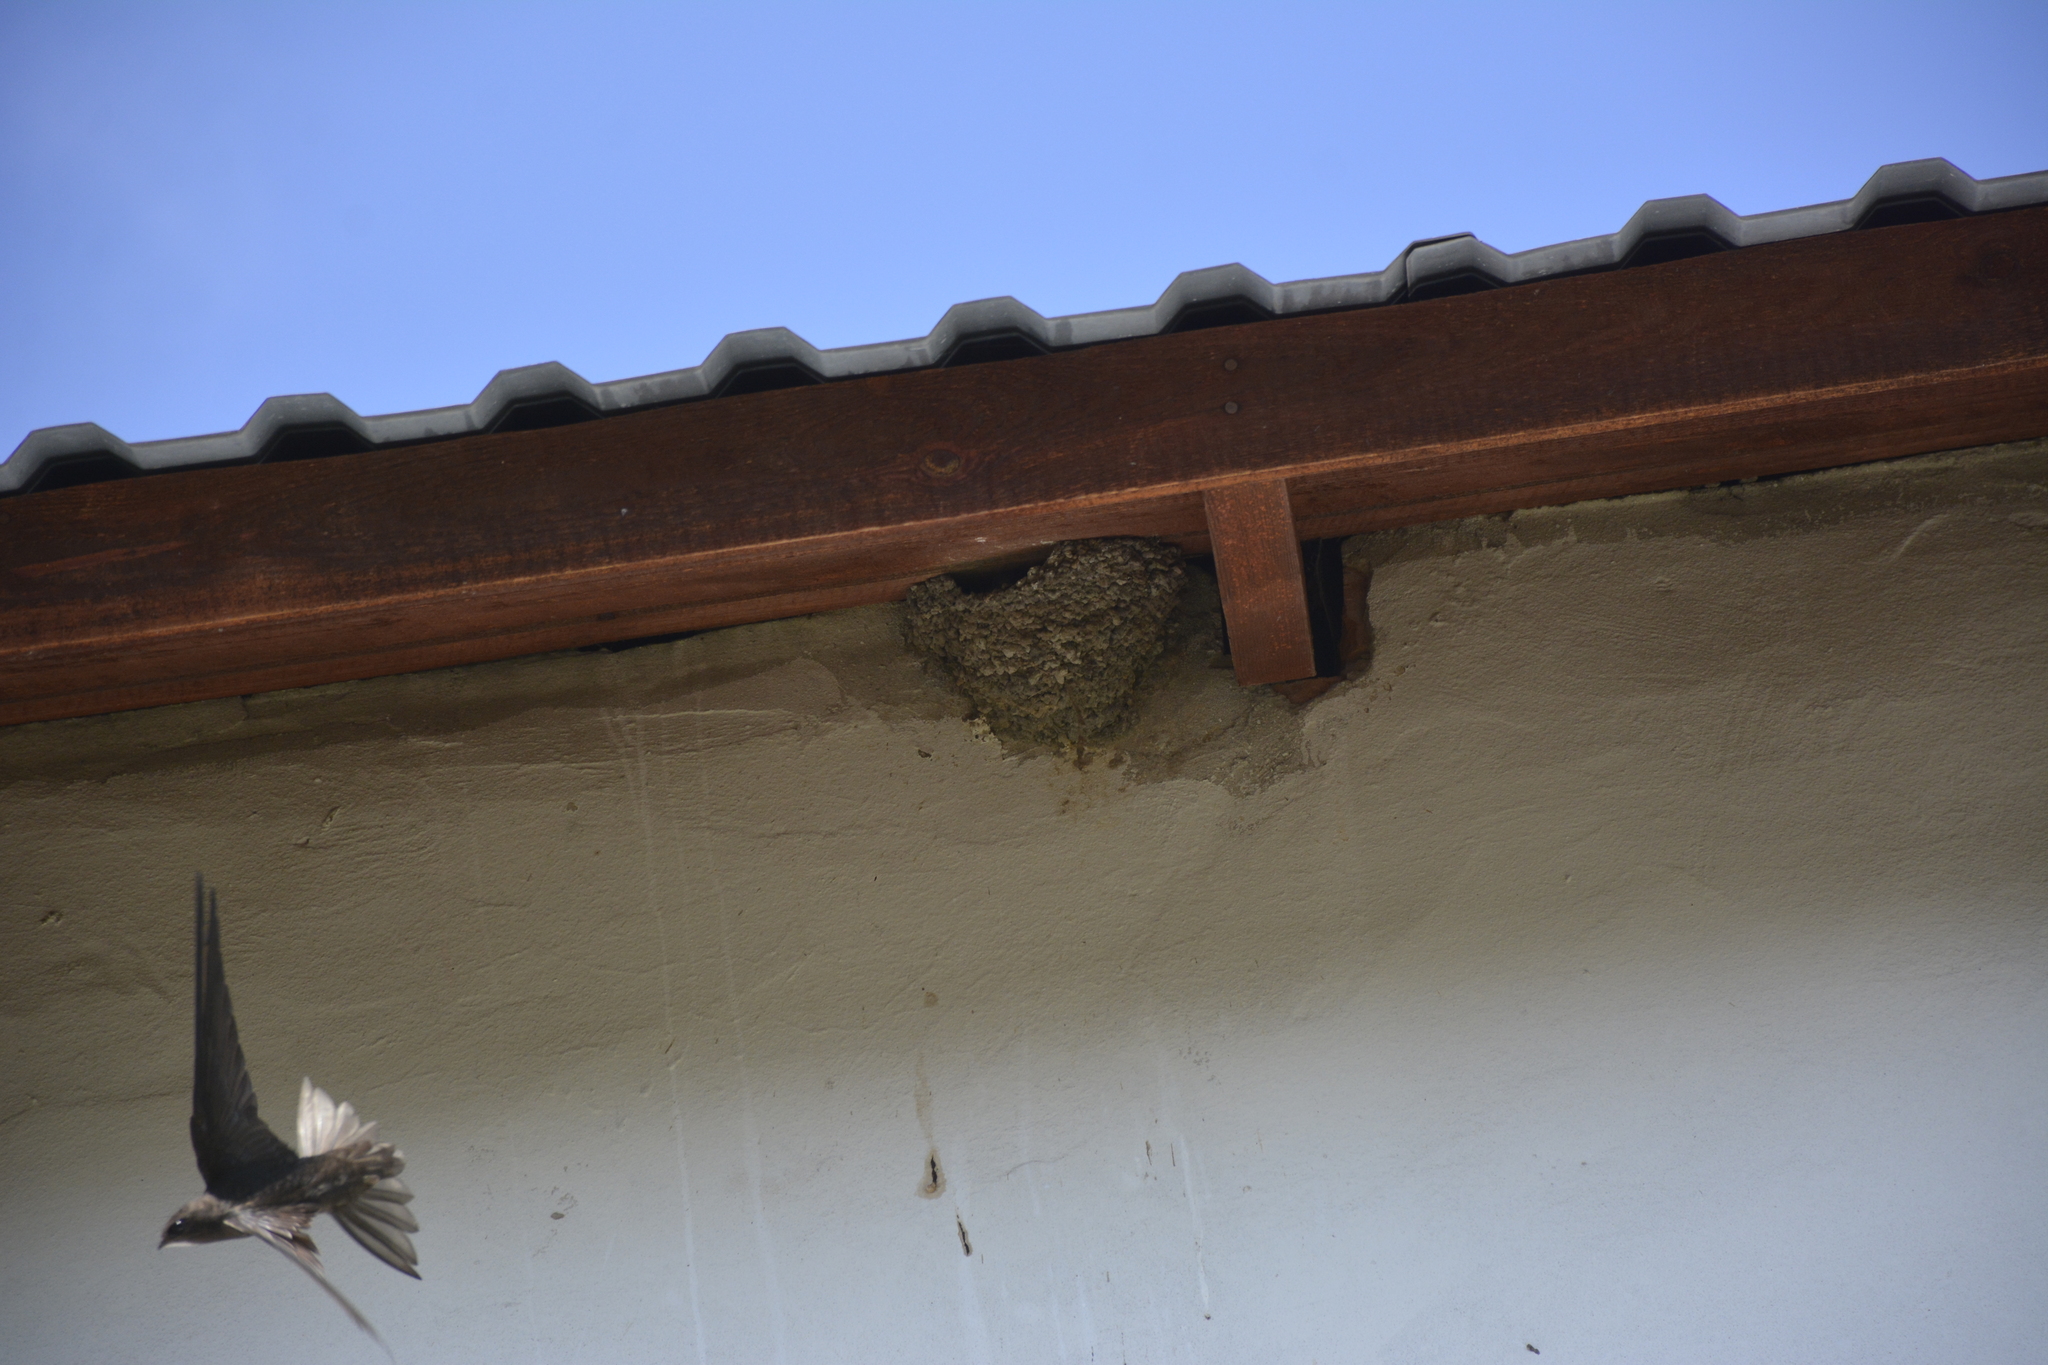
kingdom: Animalia
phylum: Chordata
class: Aves
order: Apodiformes
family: Apodidae
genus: Apus
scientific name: Apus apus
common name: Common swift
